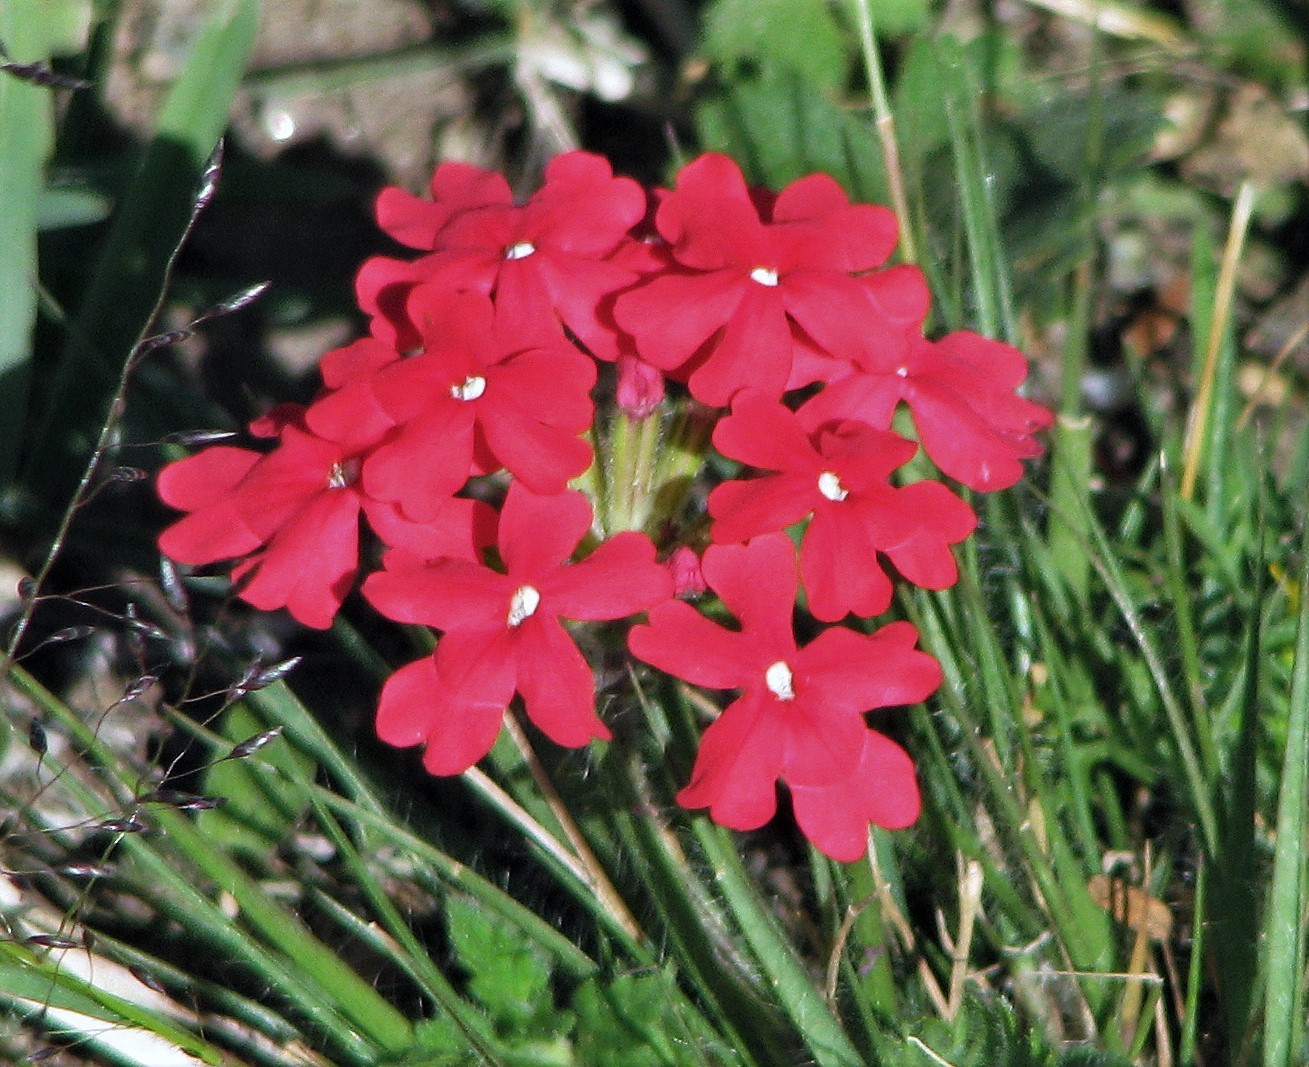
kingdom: Plantae
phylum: Tracheophyta
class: Magnoliopsida
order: Lamiales
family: Verbenaceae
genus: Verbena
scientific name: Verbena peruviana
